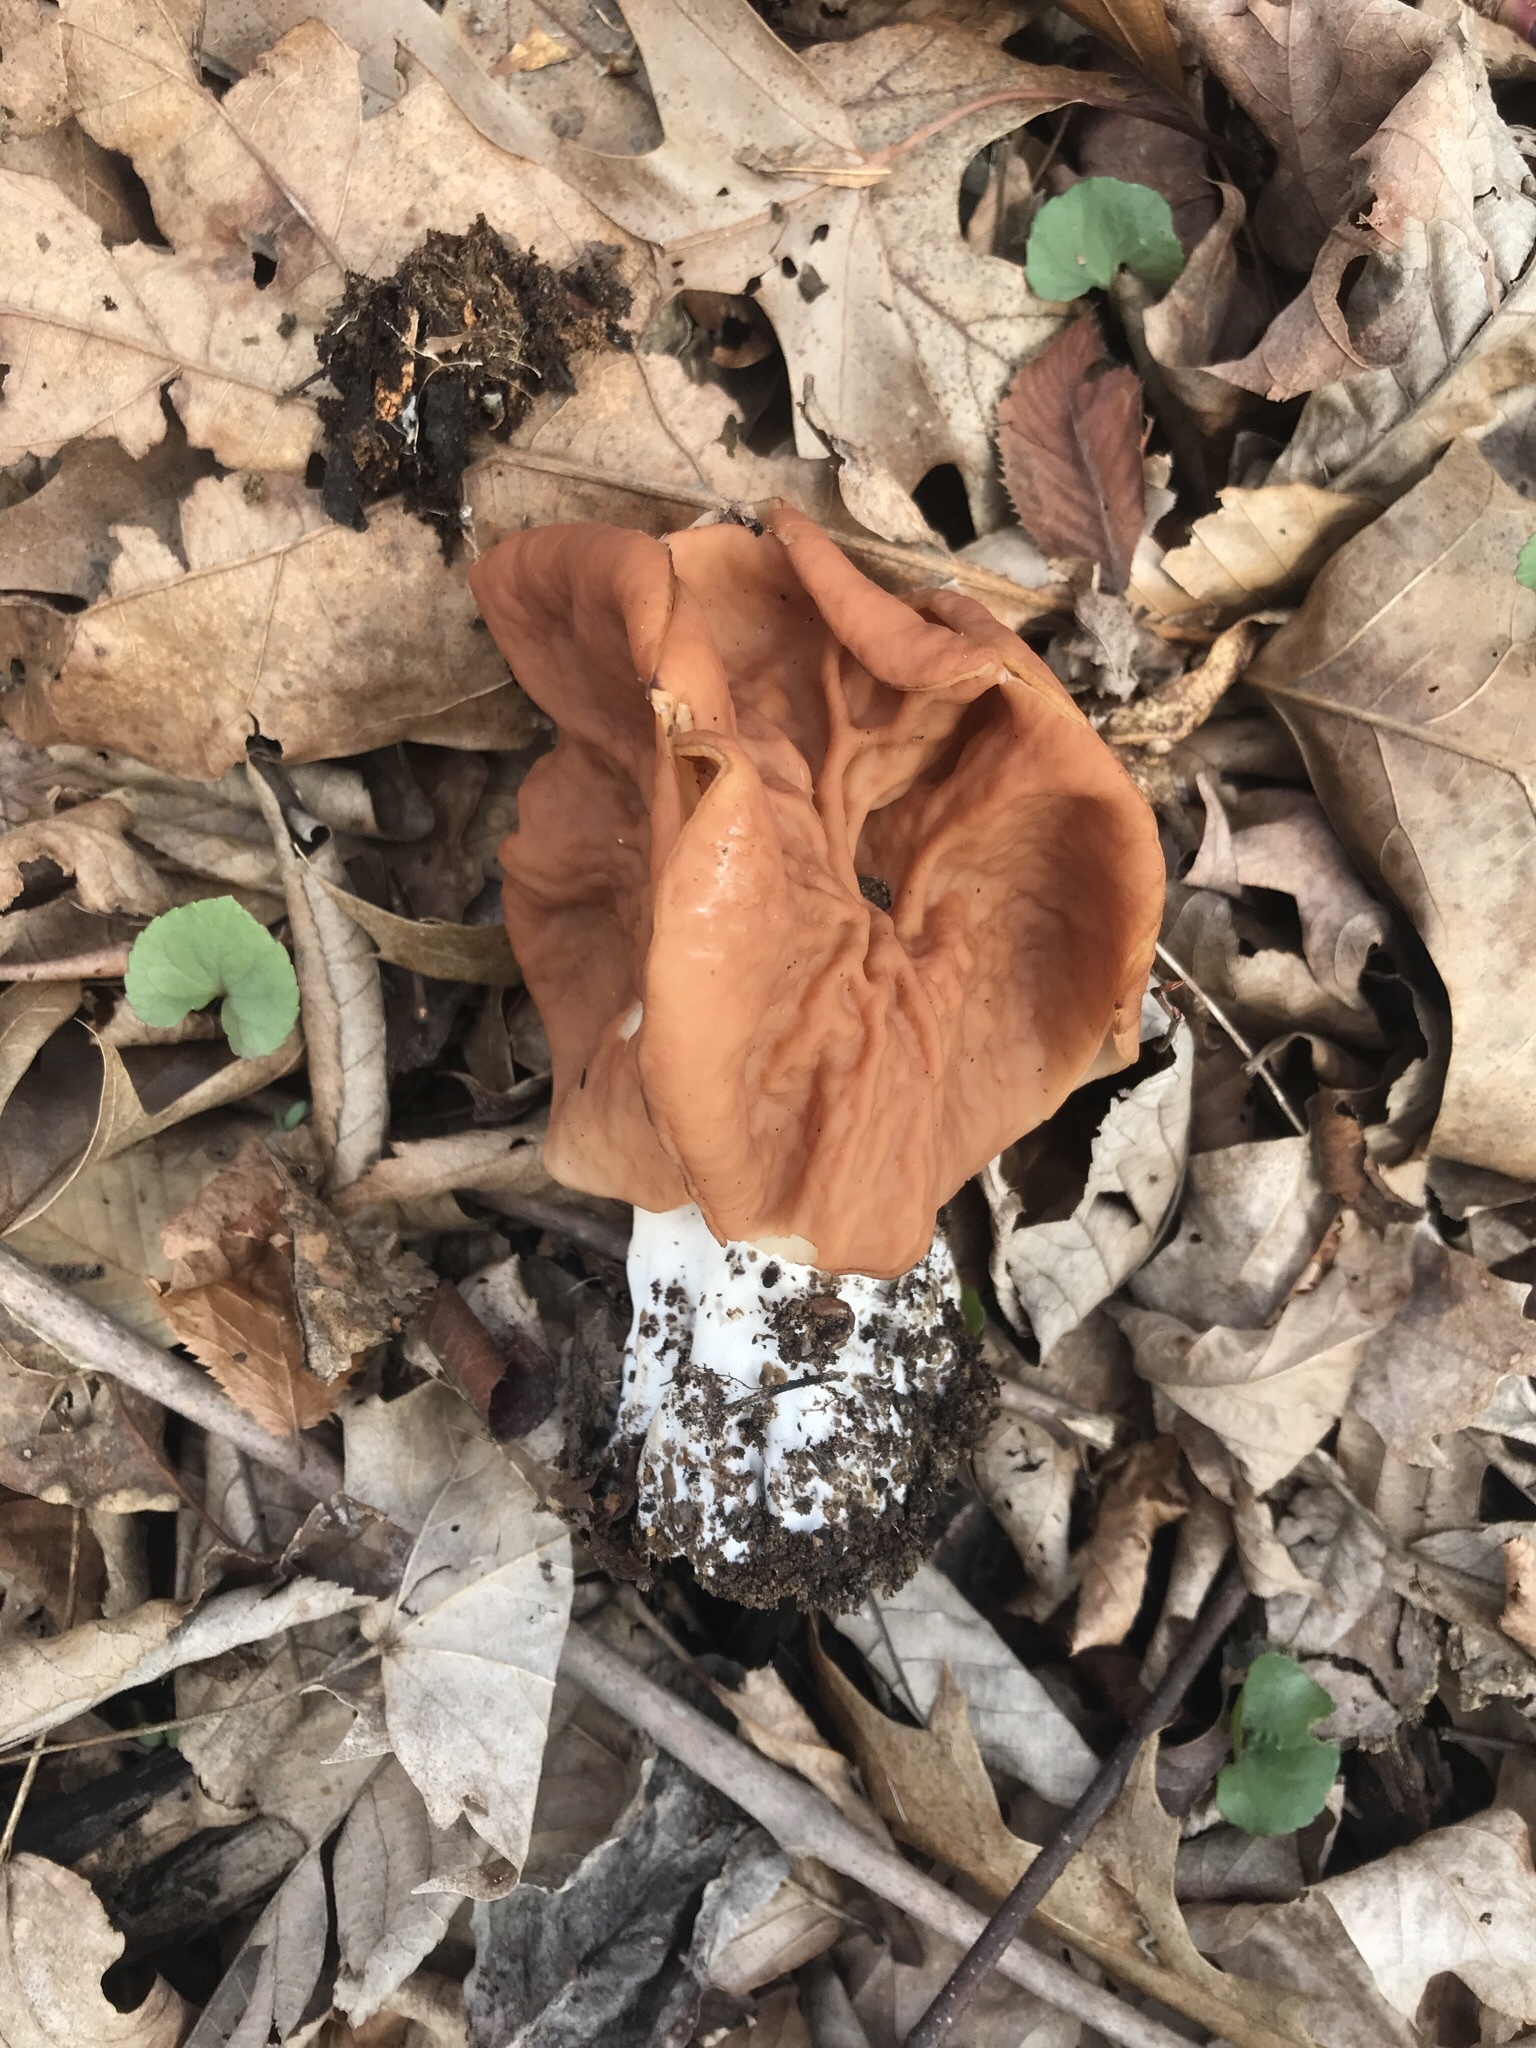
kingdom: Fungi
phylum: Ascomycota
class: Pezizomycetes
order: Pezizales
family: Discinaceae
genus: Discina
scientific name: Discina brunnea
